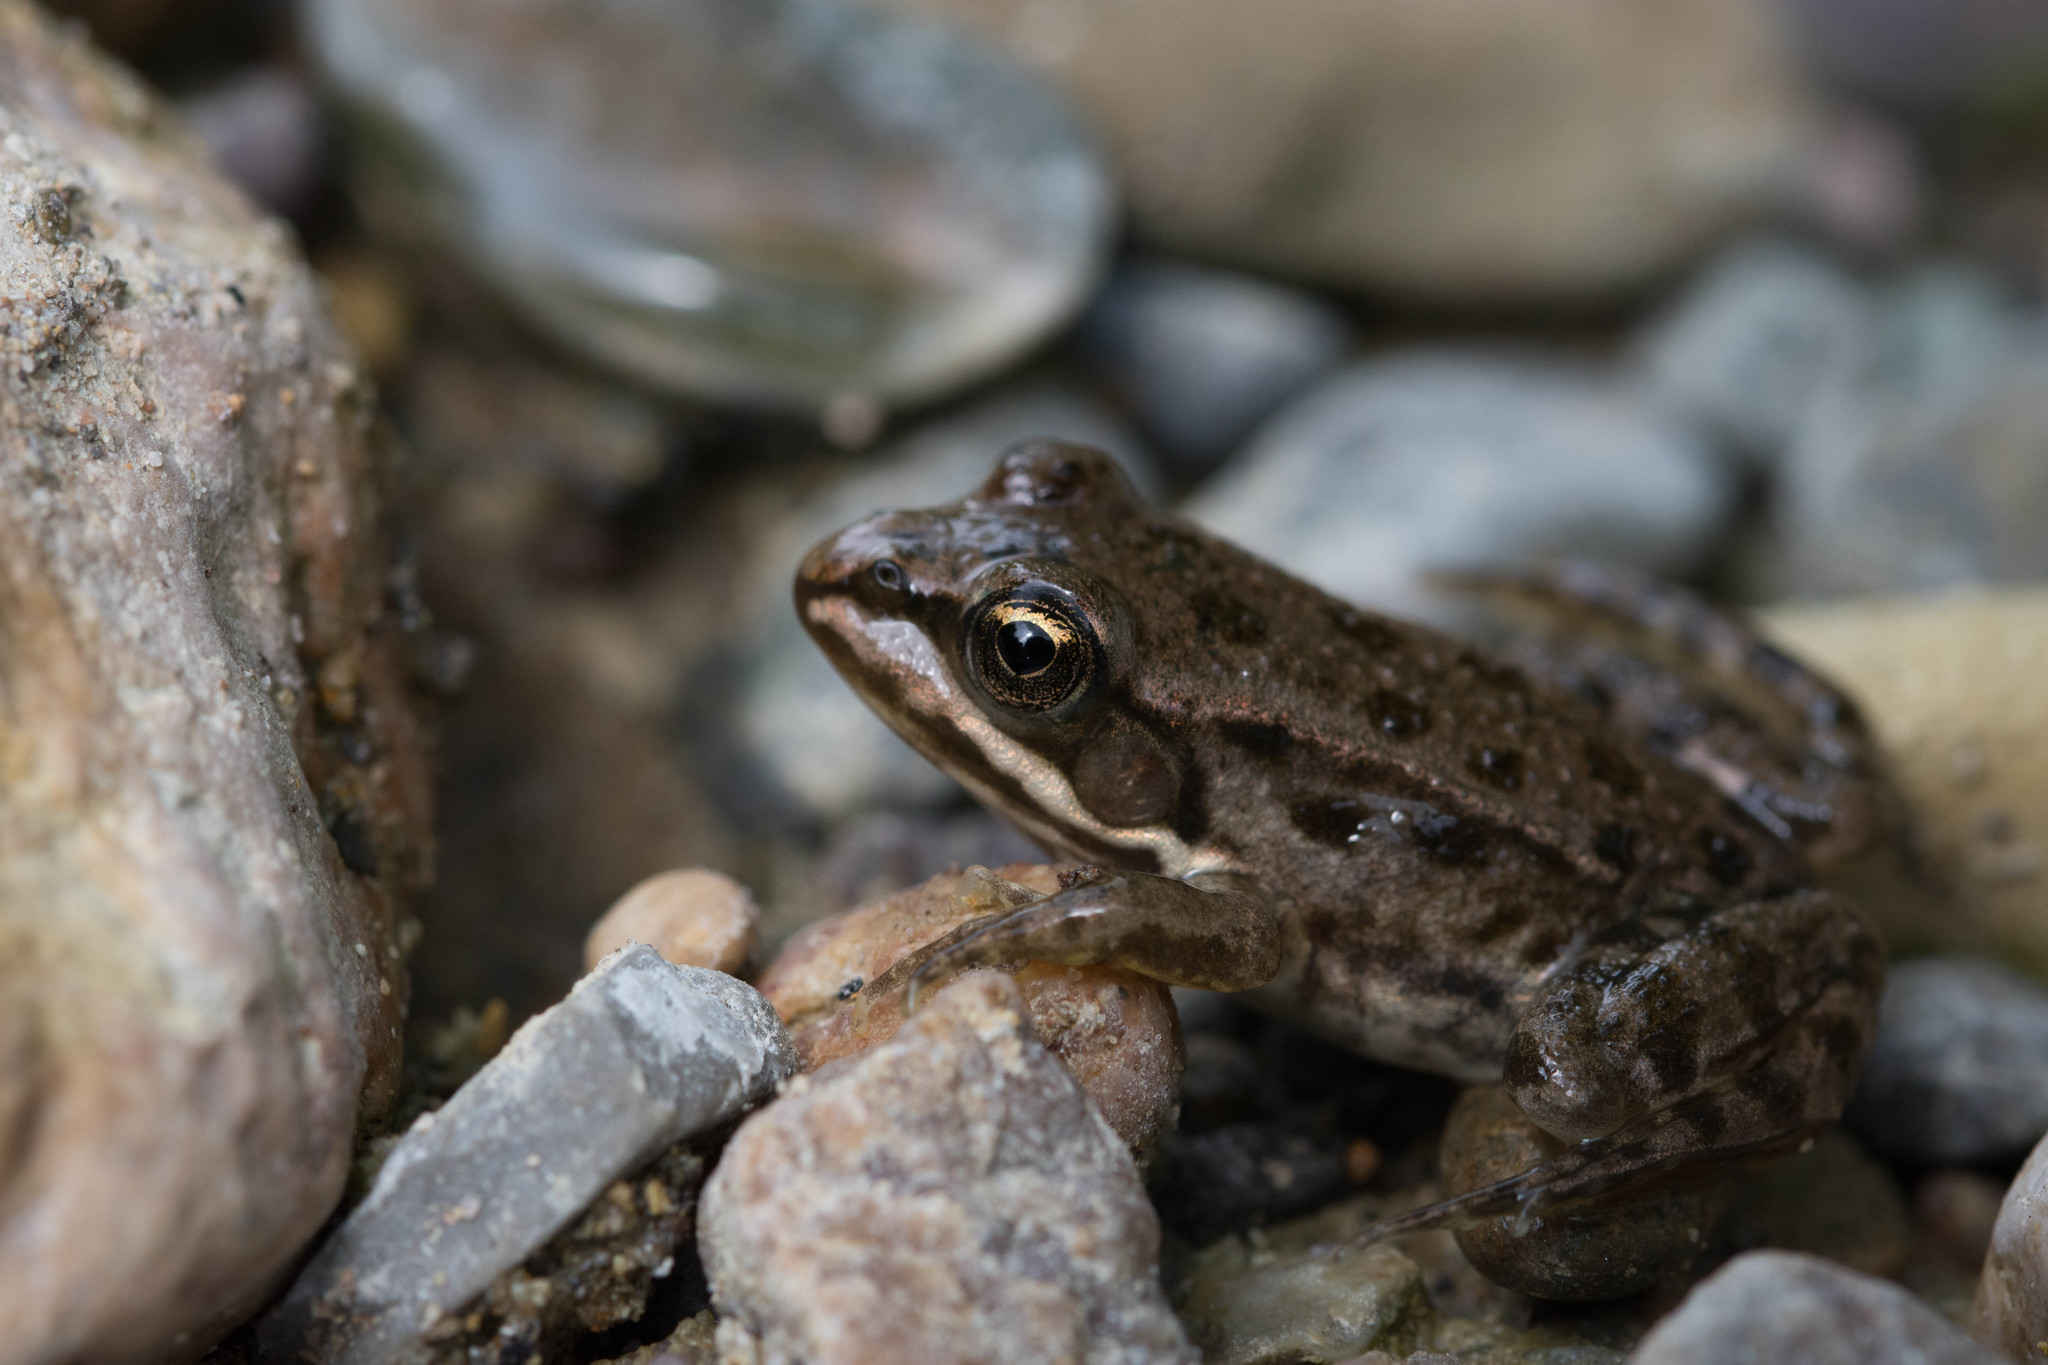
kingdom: Animalia
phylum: Chordata
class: Amphibia
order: Anura
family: Ranidae
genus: Pelophylax
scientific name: Pelophylax
